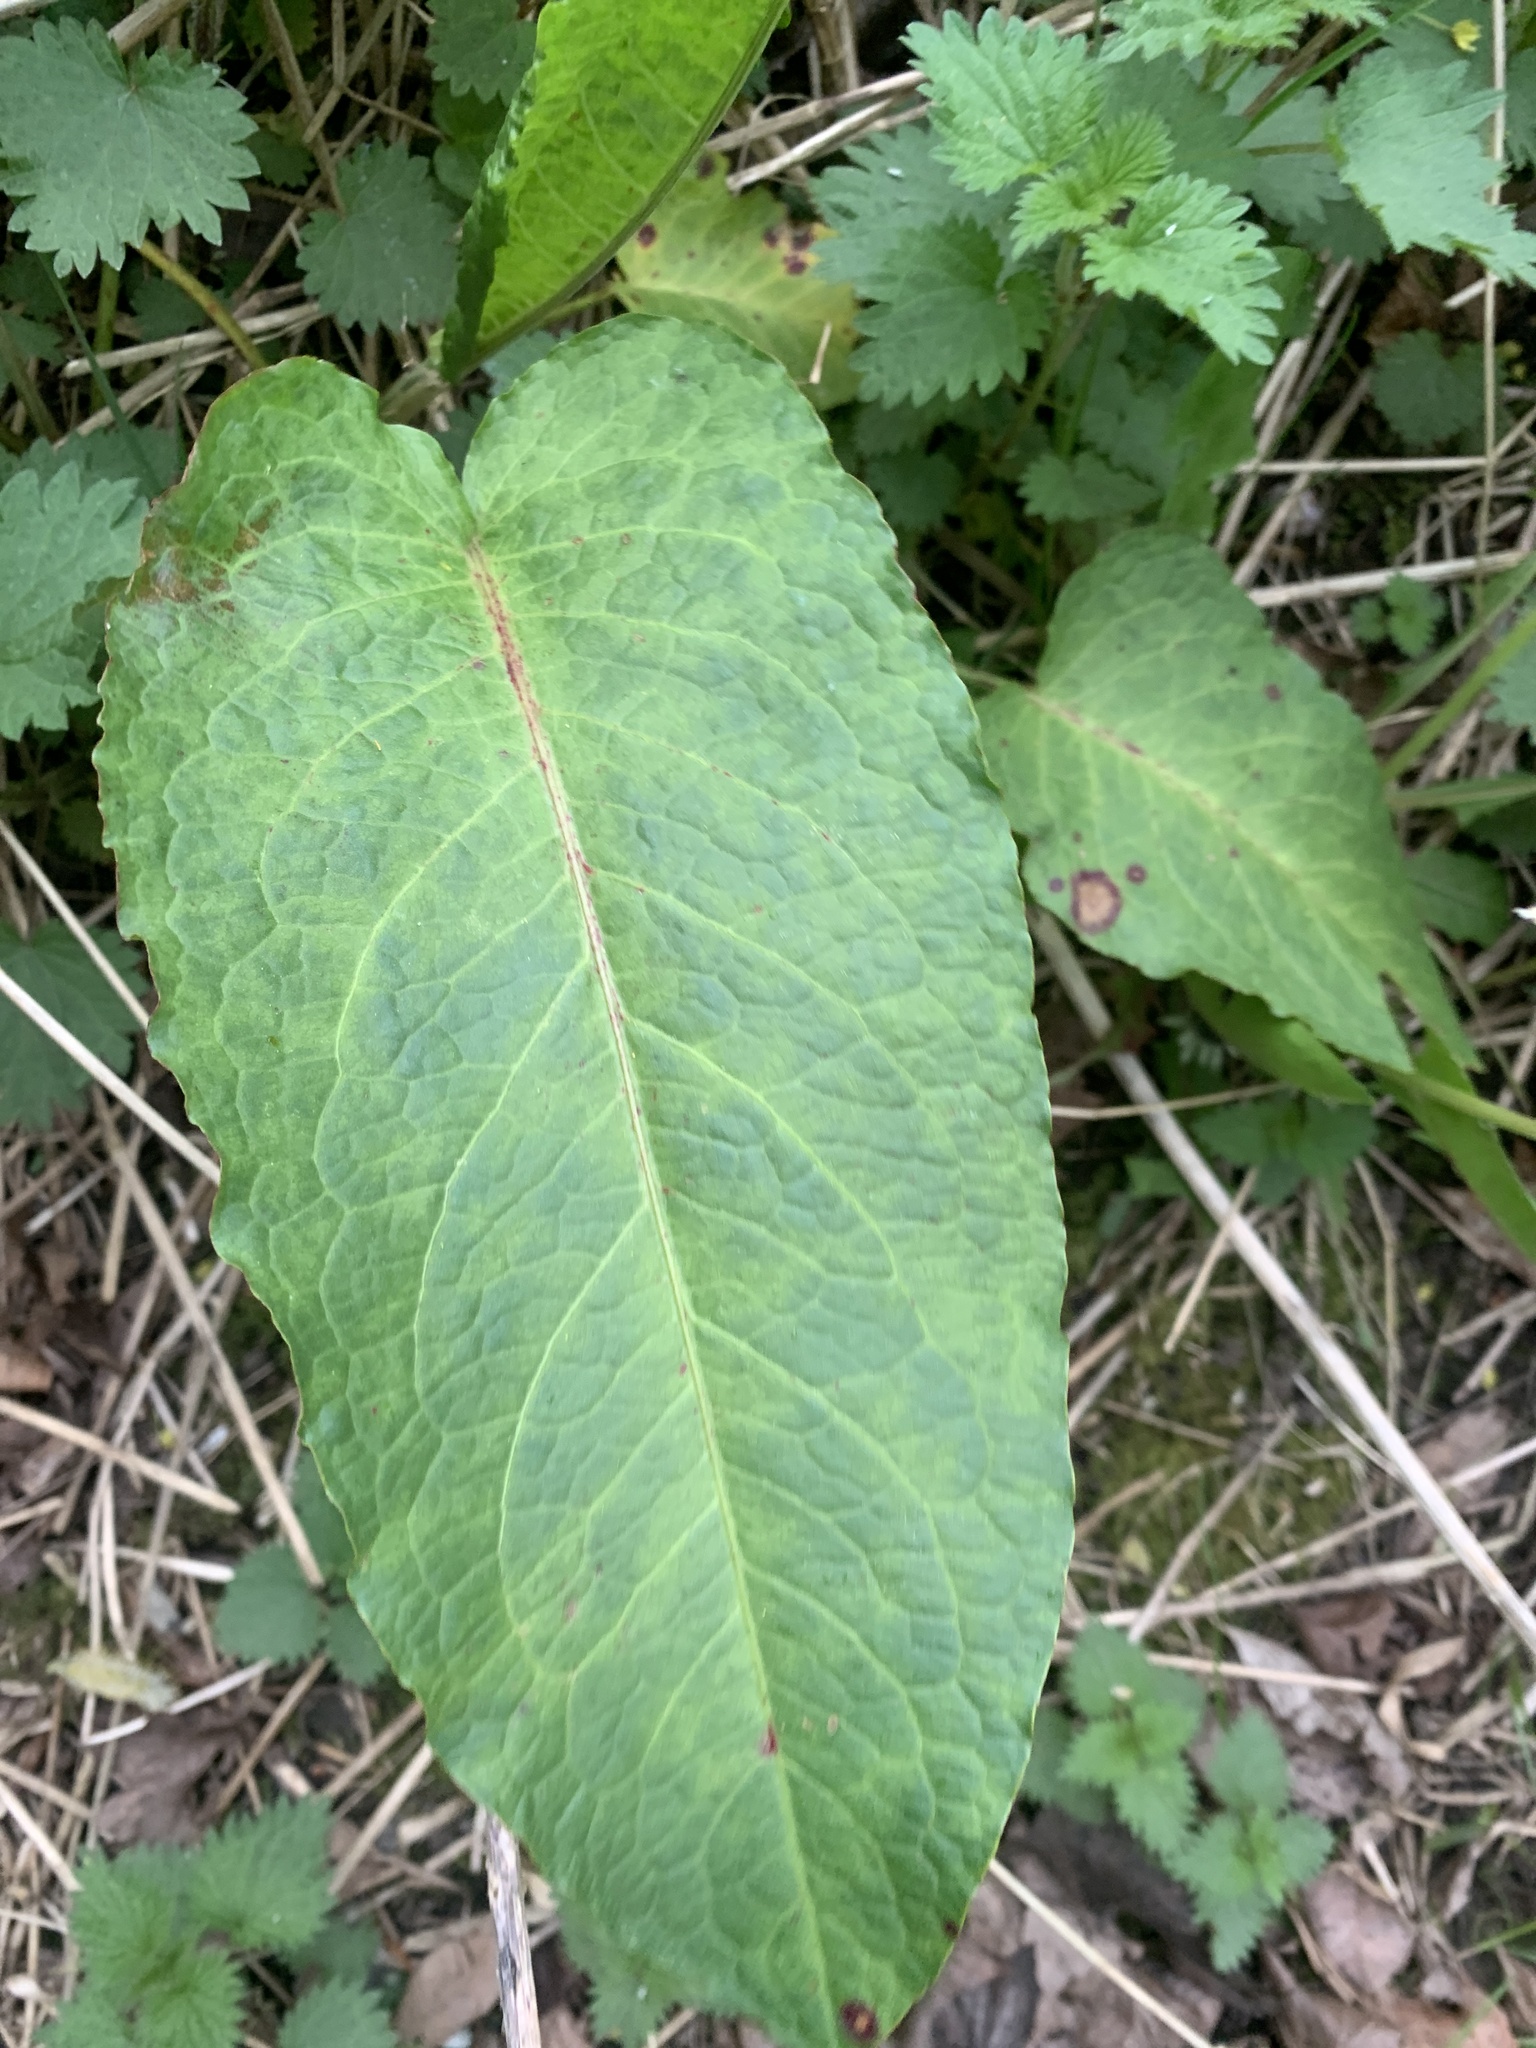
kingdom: Plantae
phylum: Tracheophyta
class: Magnoliopsida
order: Caryophyllales
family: Polygonaceae
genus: Rumex
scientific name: Rumex obtusifolius
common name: Bitter dock
